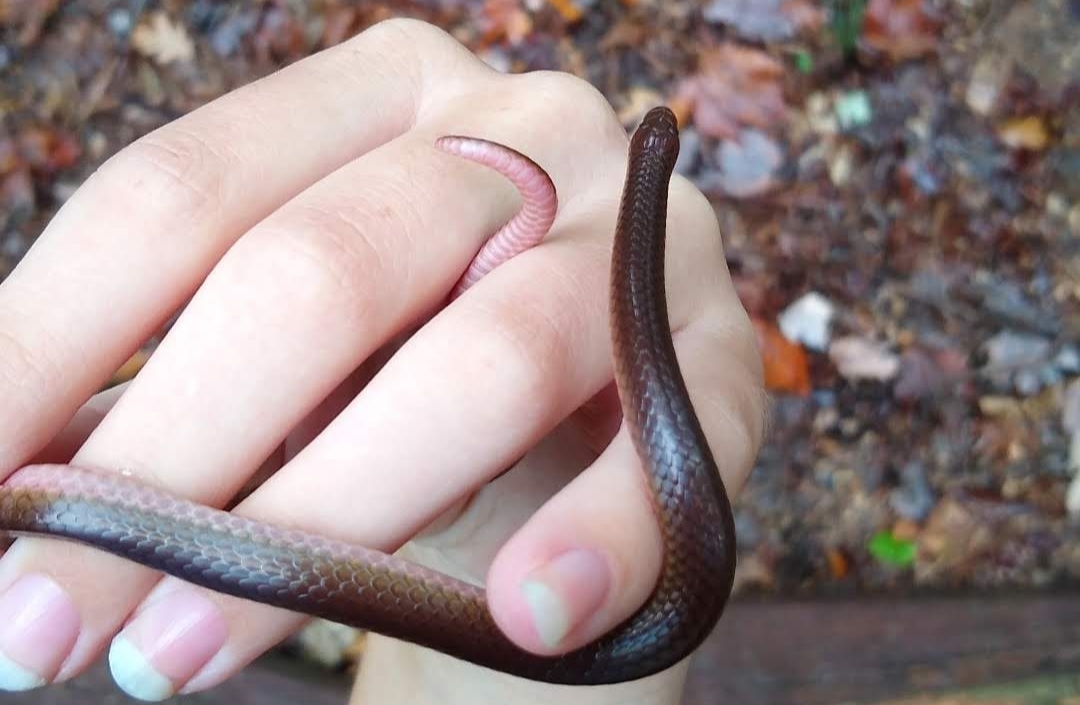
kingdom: Animalia
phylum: Chordata
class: Squamata
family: Colubridae
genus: Carphophis
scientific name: Carphophis amoenus
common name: Eastern worm snake
